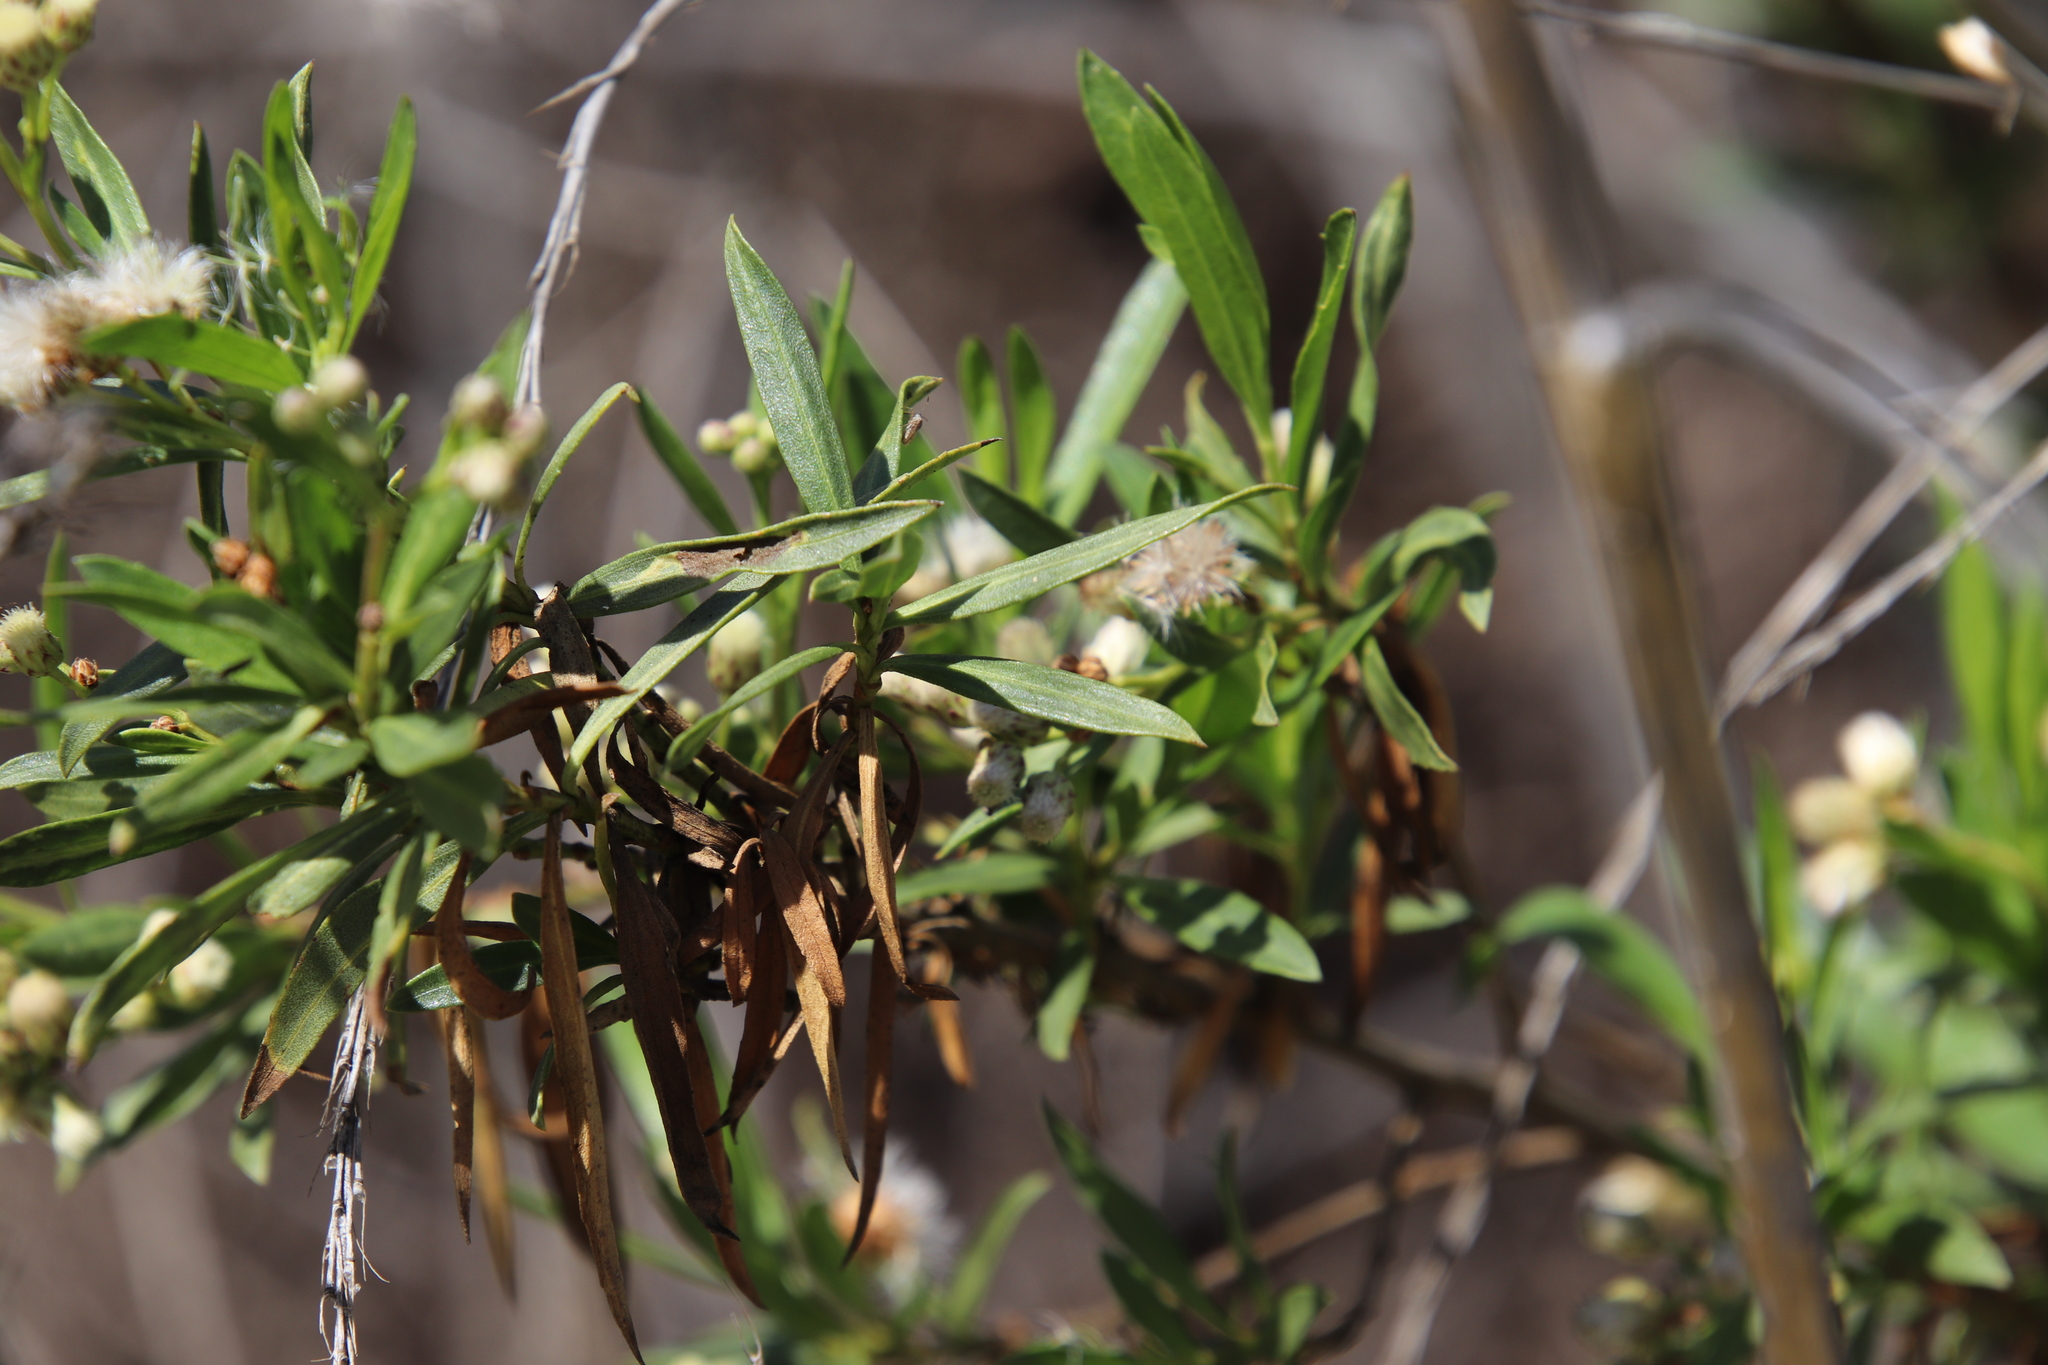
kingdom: Plantae
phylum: Tracheophyta
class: Magnoliopsida
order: Asterales
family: Asteraceae
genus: Baccharis
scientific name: Baccharis salicifolia
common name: Sticky baccharis
